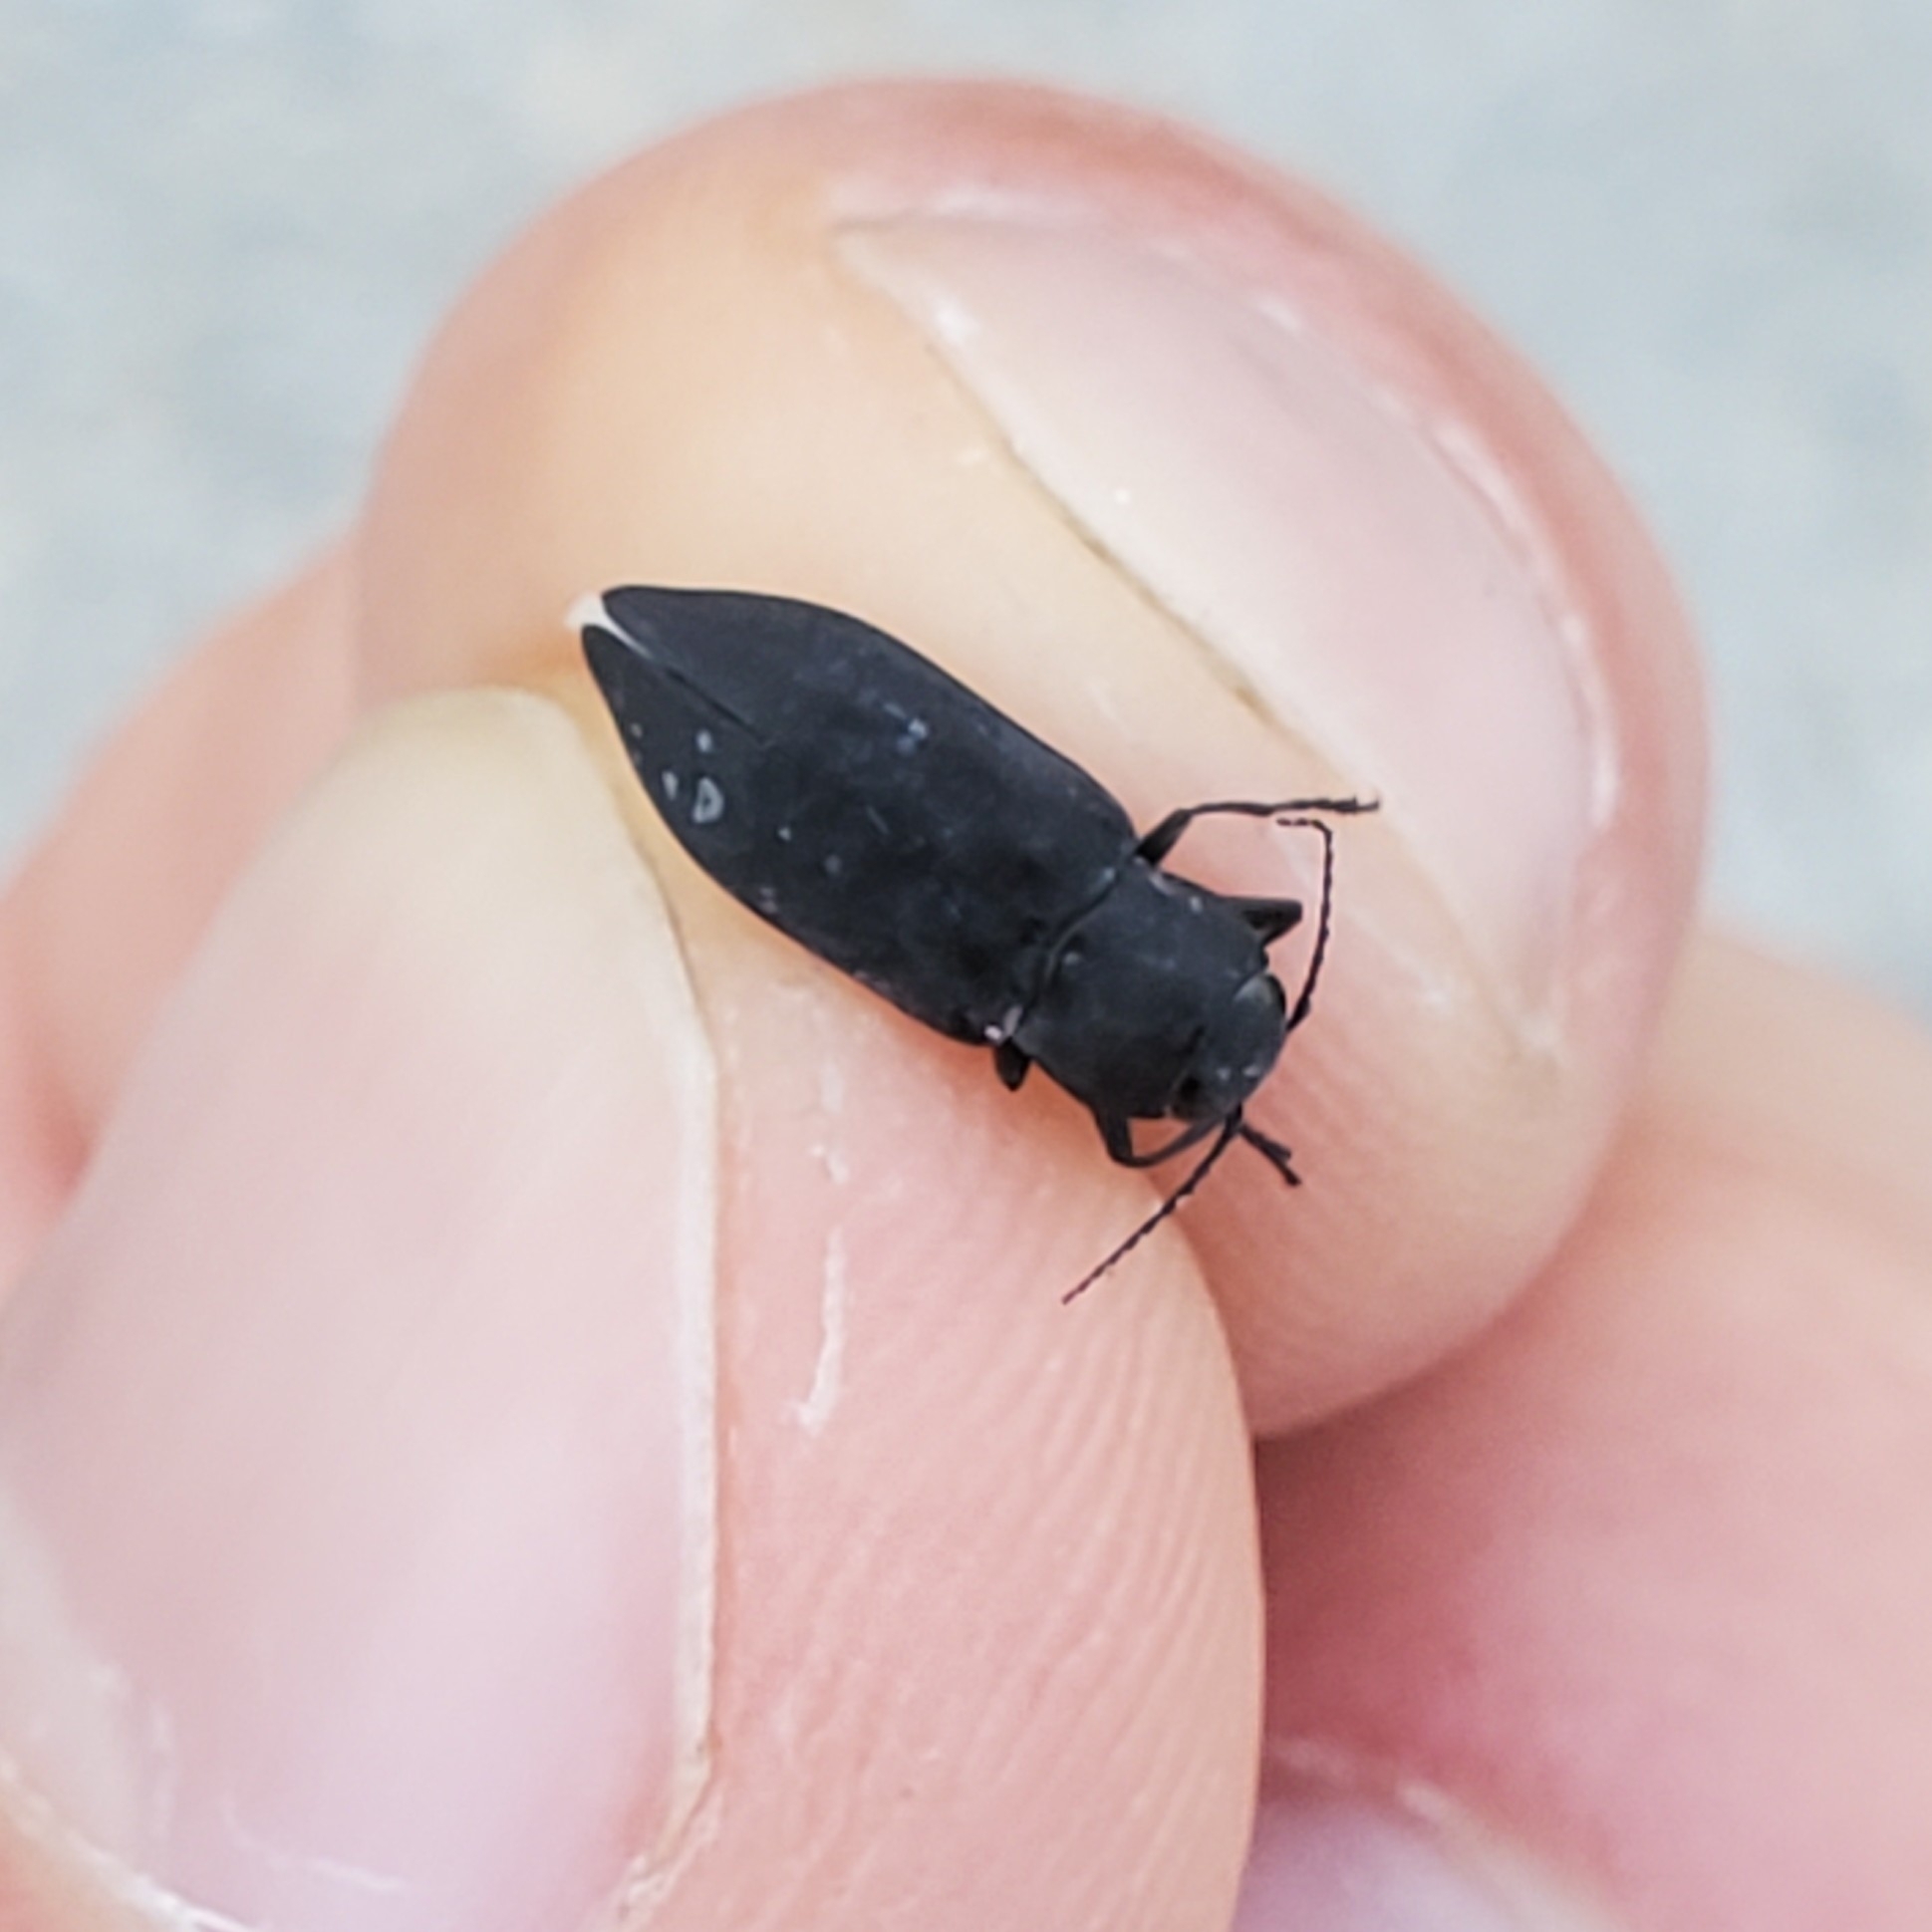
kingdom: Animalia
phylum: Arthropoda
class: Insecta
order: Coleoptera
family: Buprestidae
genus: Melanophila
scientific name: Melanophila acuminata
